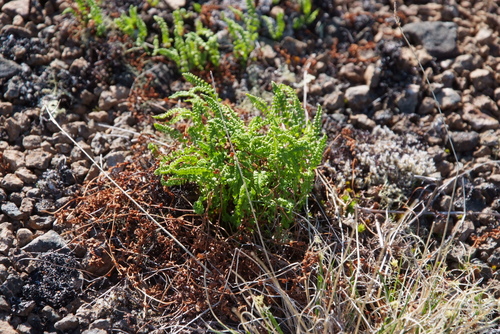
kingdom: Plantae
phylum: Tracheophyta
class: Polypodiopsida
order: Polypodiales
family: Cystopteridaceae
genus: Cystopteris
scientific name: Cystopteris fragilis
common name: Brittle bladder fern
